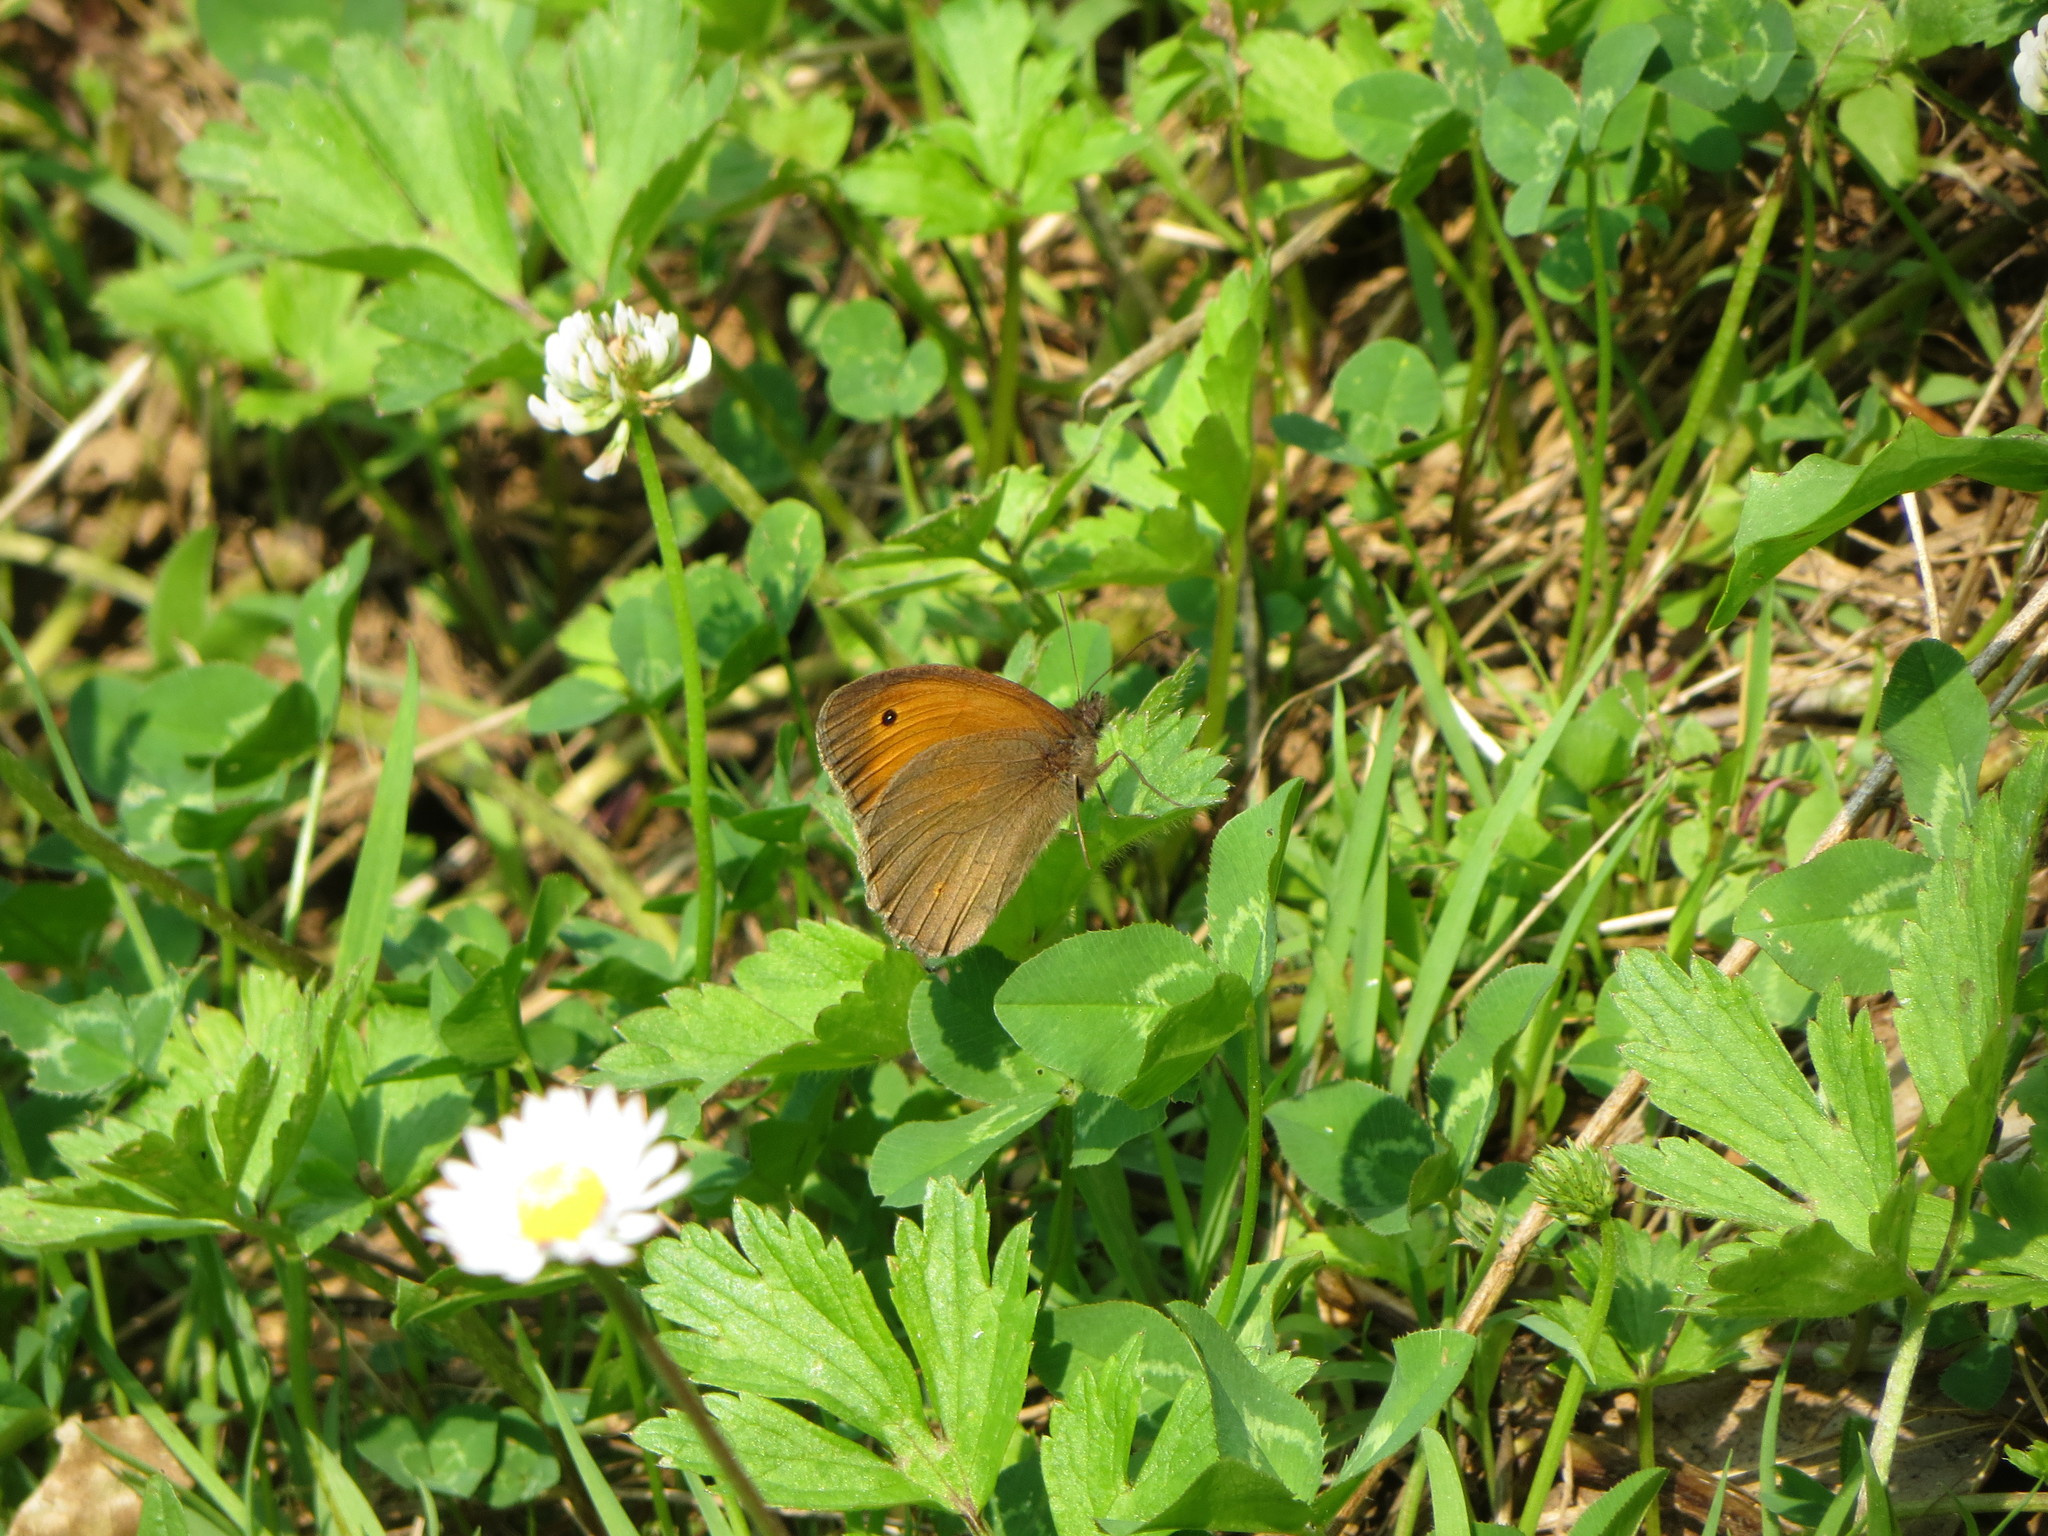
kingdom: Animalia
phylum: Arthropoda
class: Insecta
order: Lepidoptera
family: Nymphalidae
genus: Maniola
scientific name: Maniola jurtina
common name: Meadow brown
